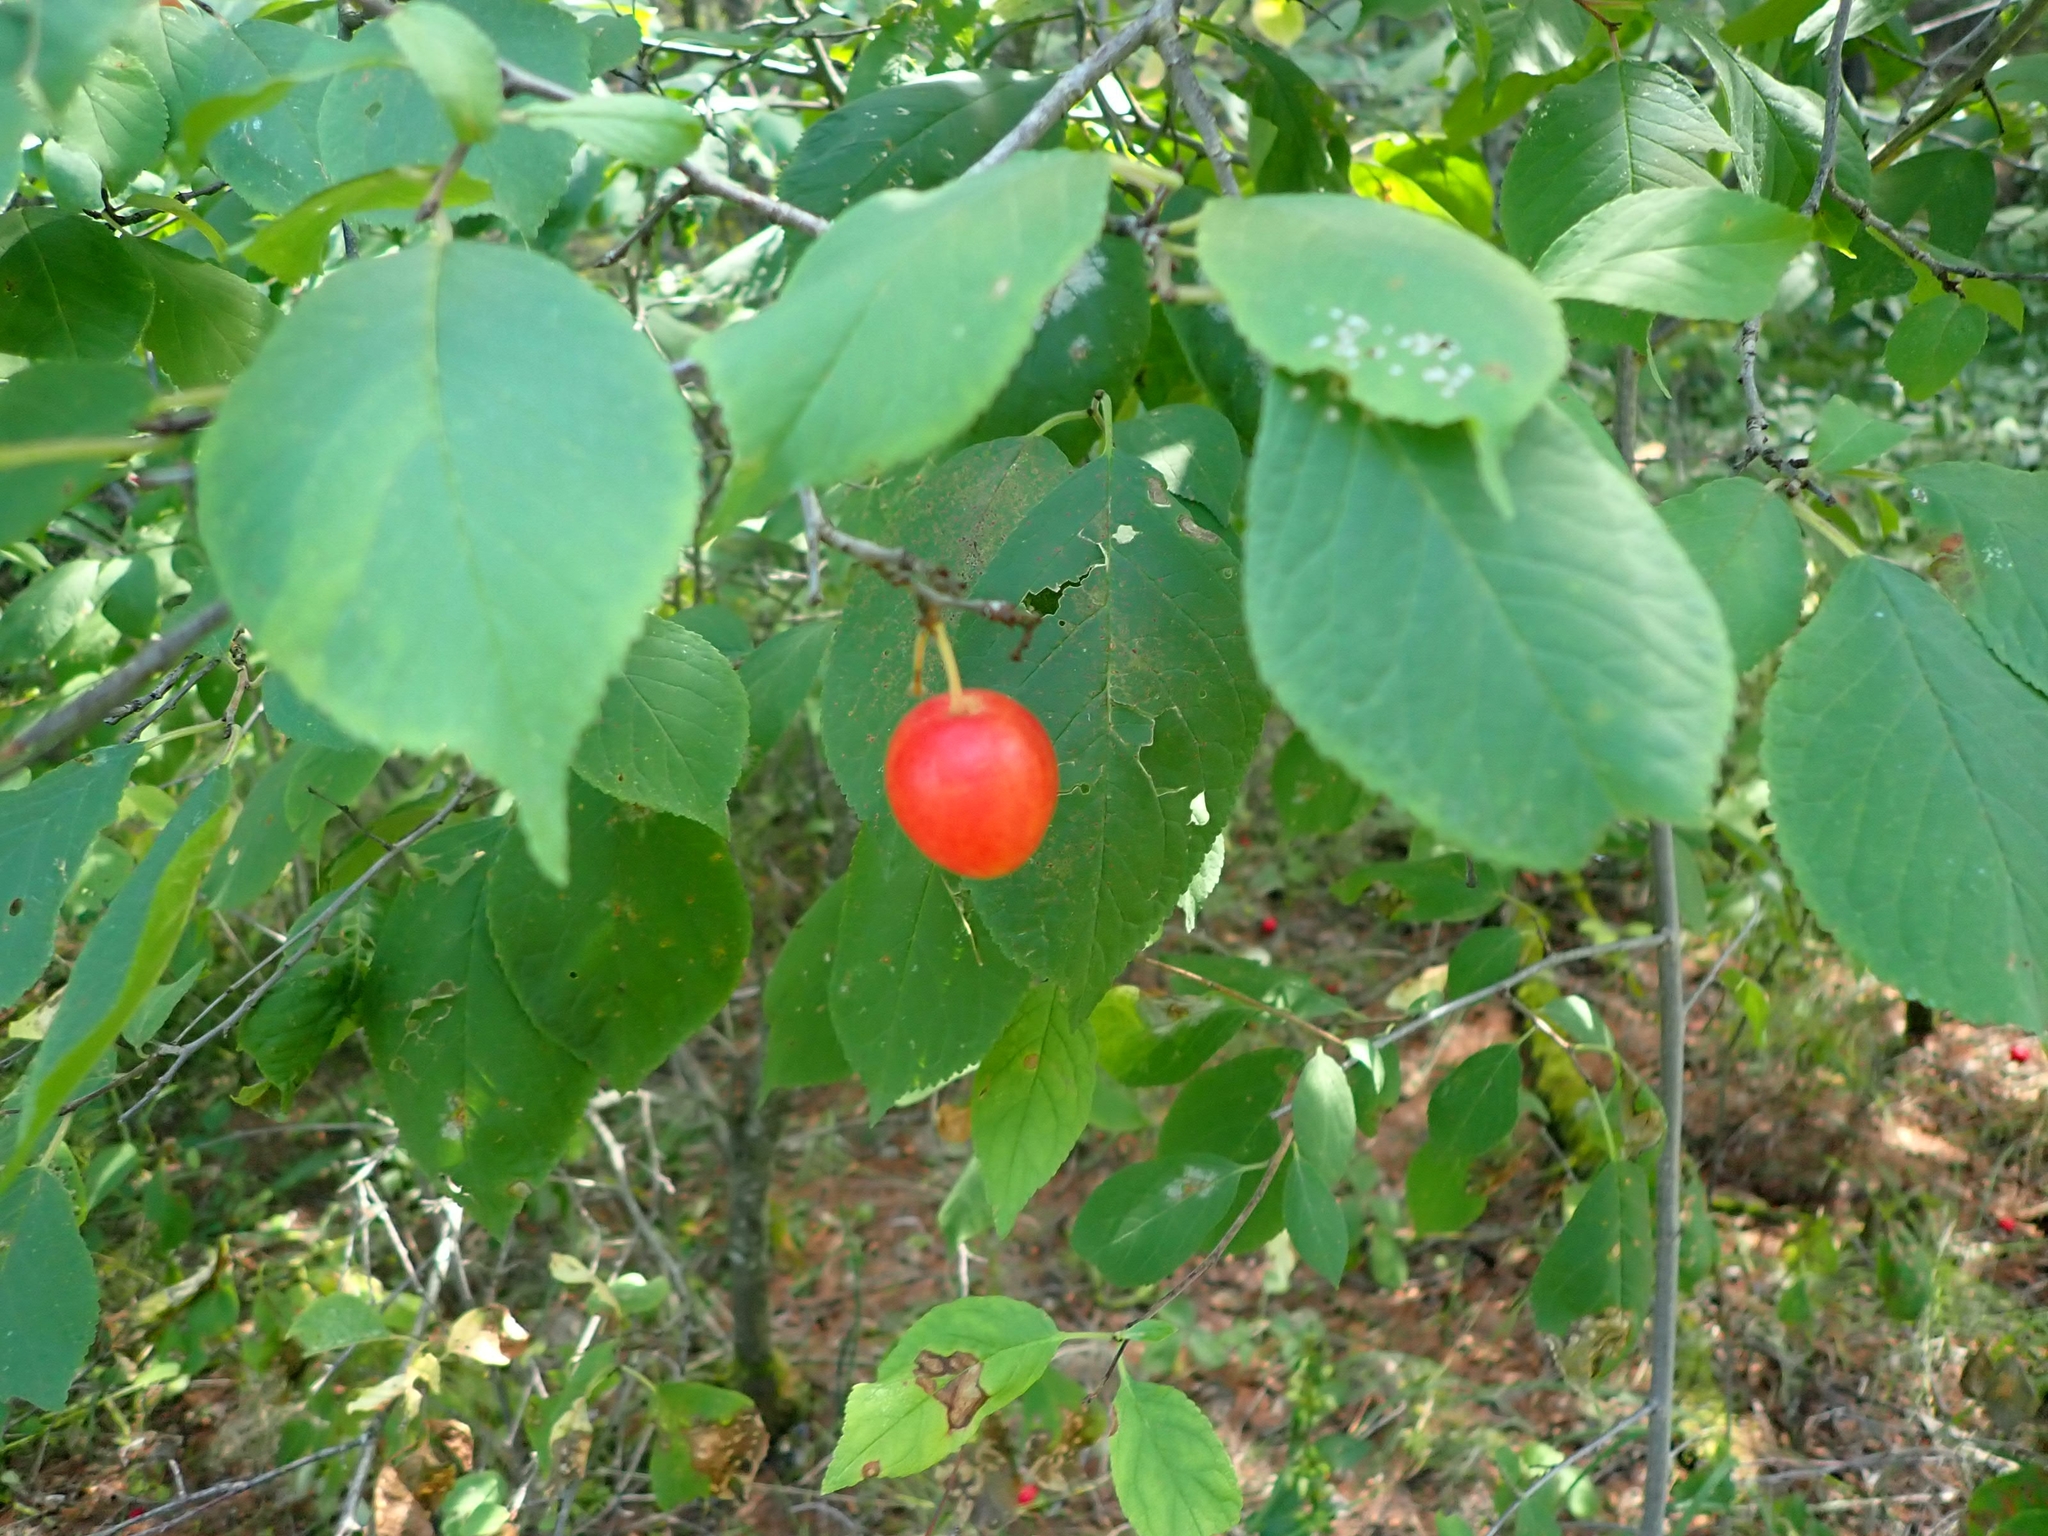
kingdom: Plantae
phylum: Tracheophyta
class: Magnoliopsida
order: Rosales
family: Rosaceae
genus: Prunus
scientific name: Prunus nigra
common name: Black plum
